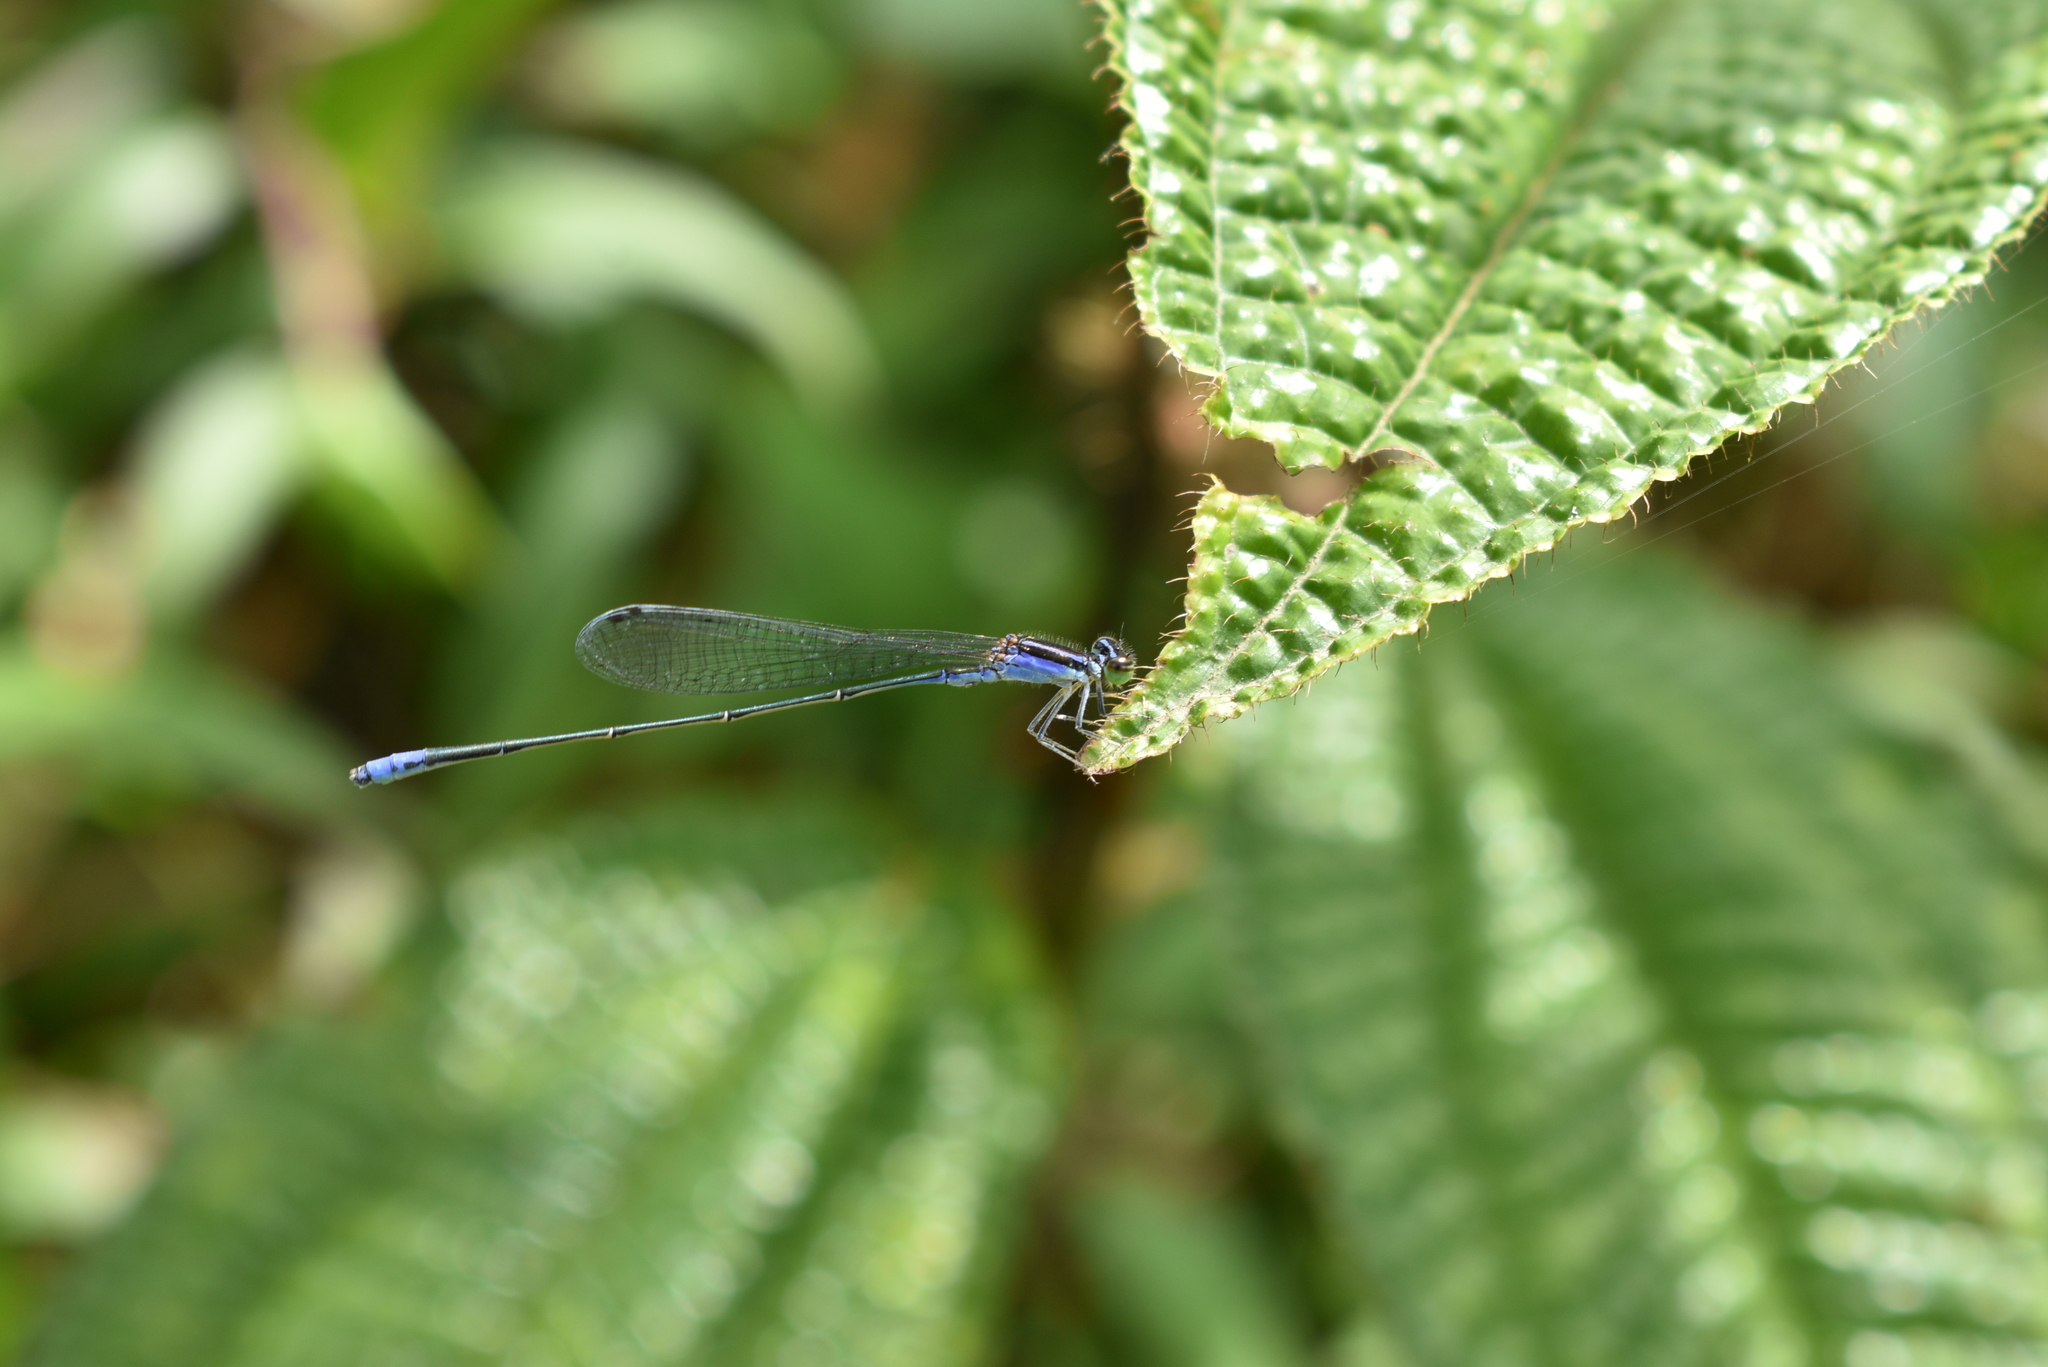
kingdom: Animalia
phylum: Arthropoda
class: Insecta
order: Odonata
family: Coenagrionidae
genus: Aciagrion
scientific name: Aciagrion approximans
